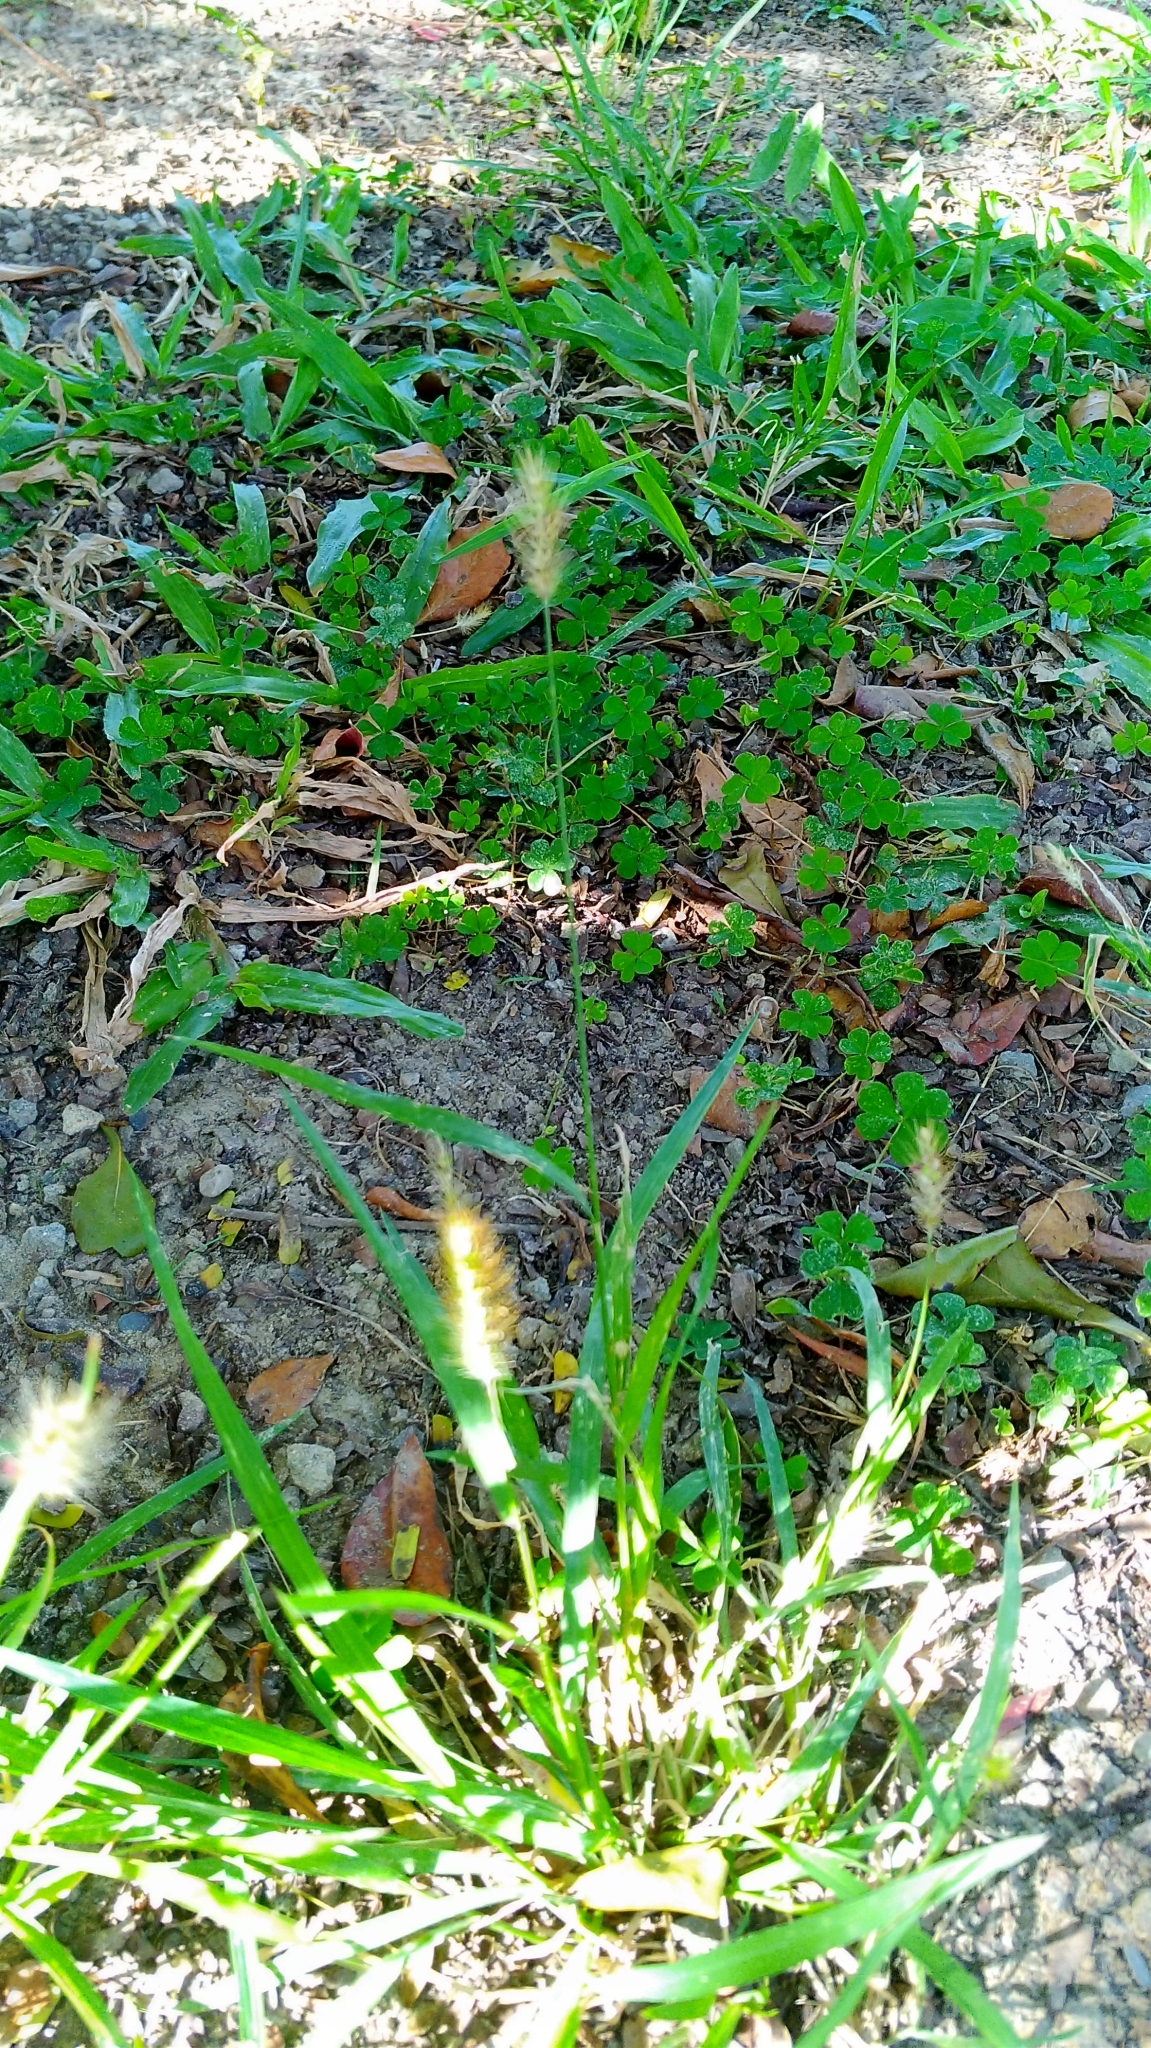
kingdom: Plantae
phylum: Tracheophyta
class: Liliopsida
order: Poales
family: Poaceae
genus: Setaria
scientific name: Setaria parviflora
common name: Knotroot bristle-grass
